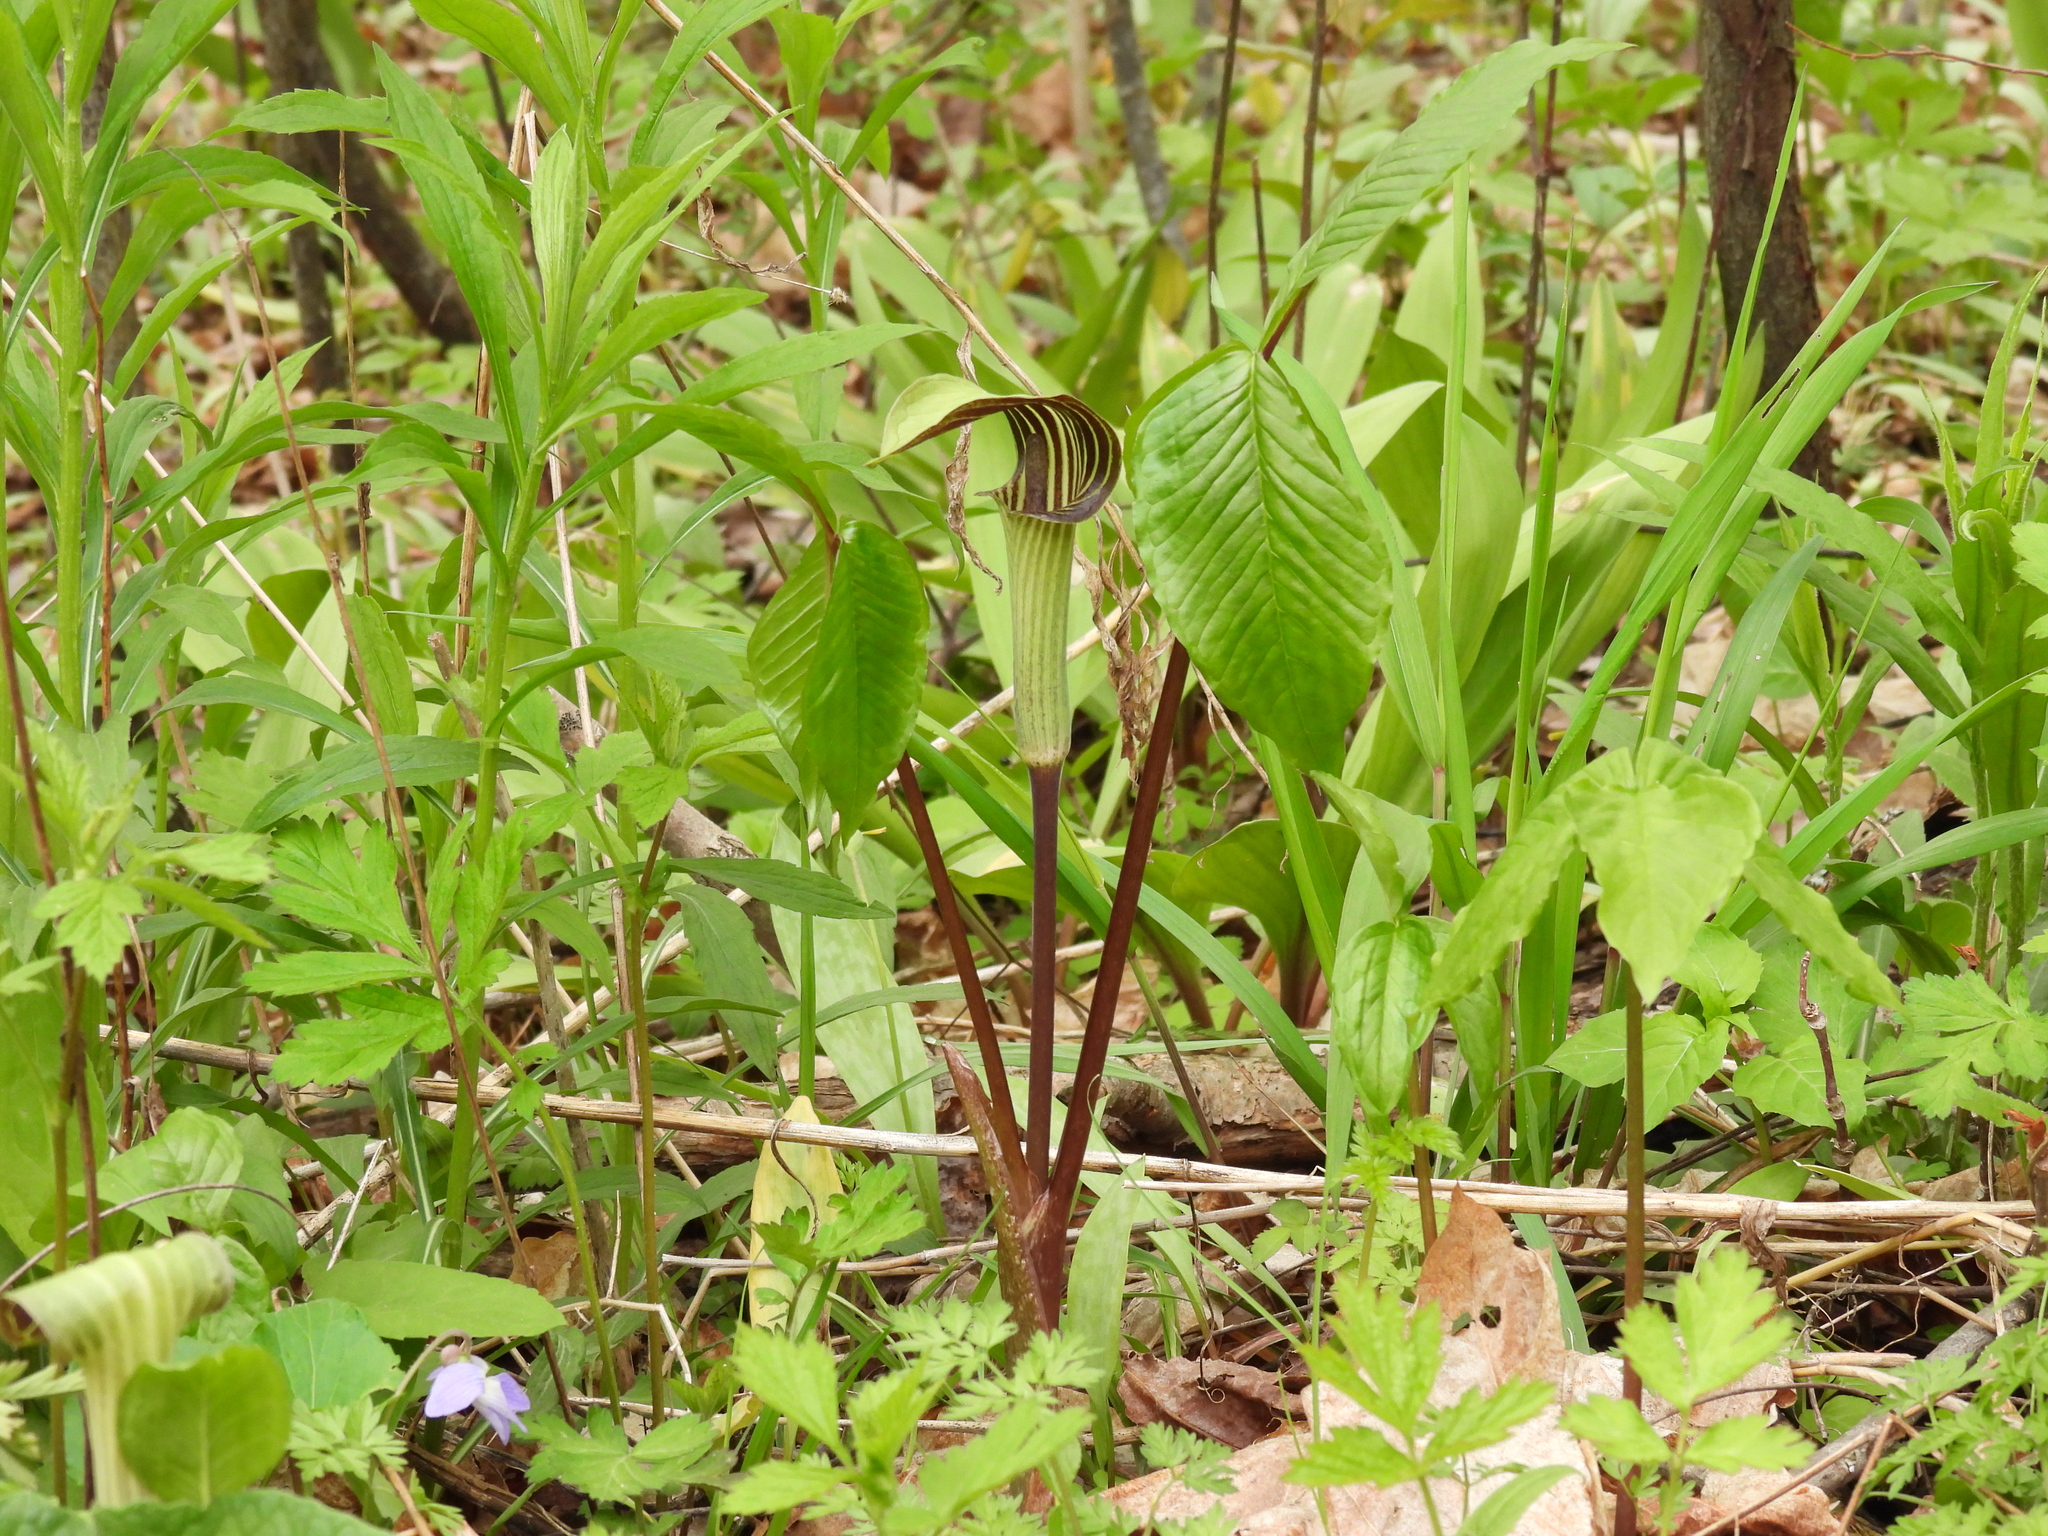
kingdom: Plantae
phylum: Tracheophyta
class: Liliopsida
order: Alismatales
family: Araceae
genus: Arisaema
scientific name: Arisaema triphyllum
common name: Jack-in-the-pulpit
